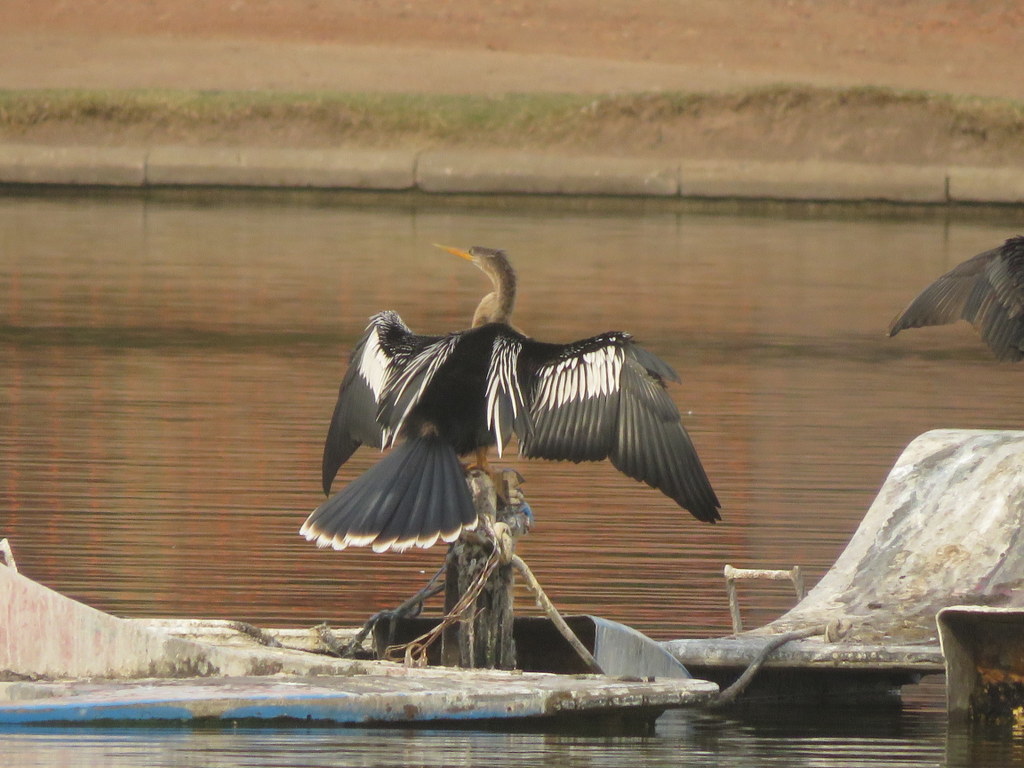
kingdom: Animalia
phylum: Chordata
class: Aves
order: Suliformes
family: Anhingidae
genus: Anhinga
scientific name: Anhinga anhinga
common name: Anhinga
